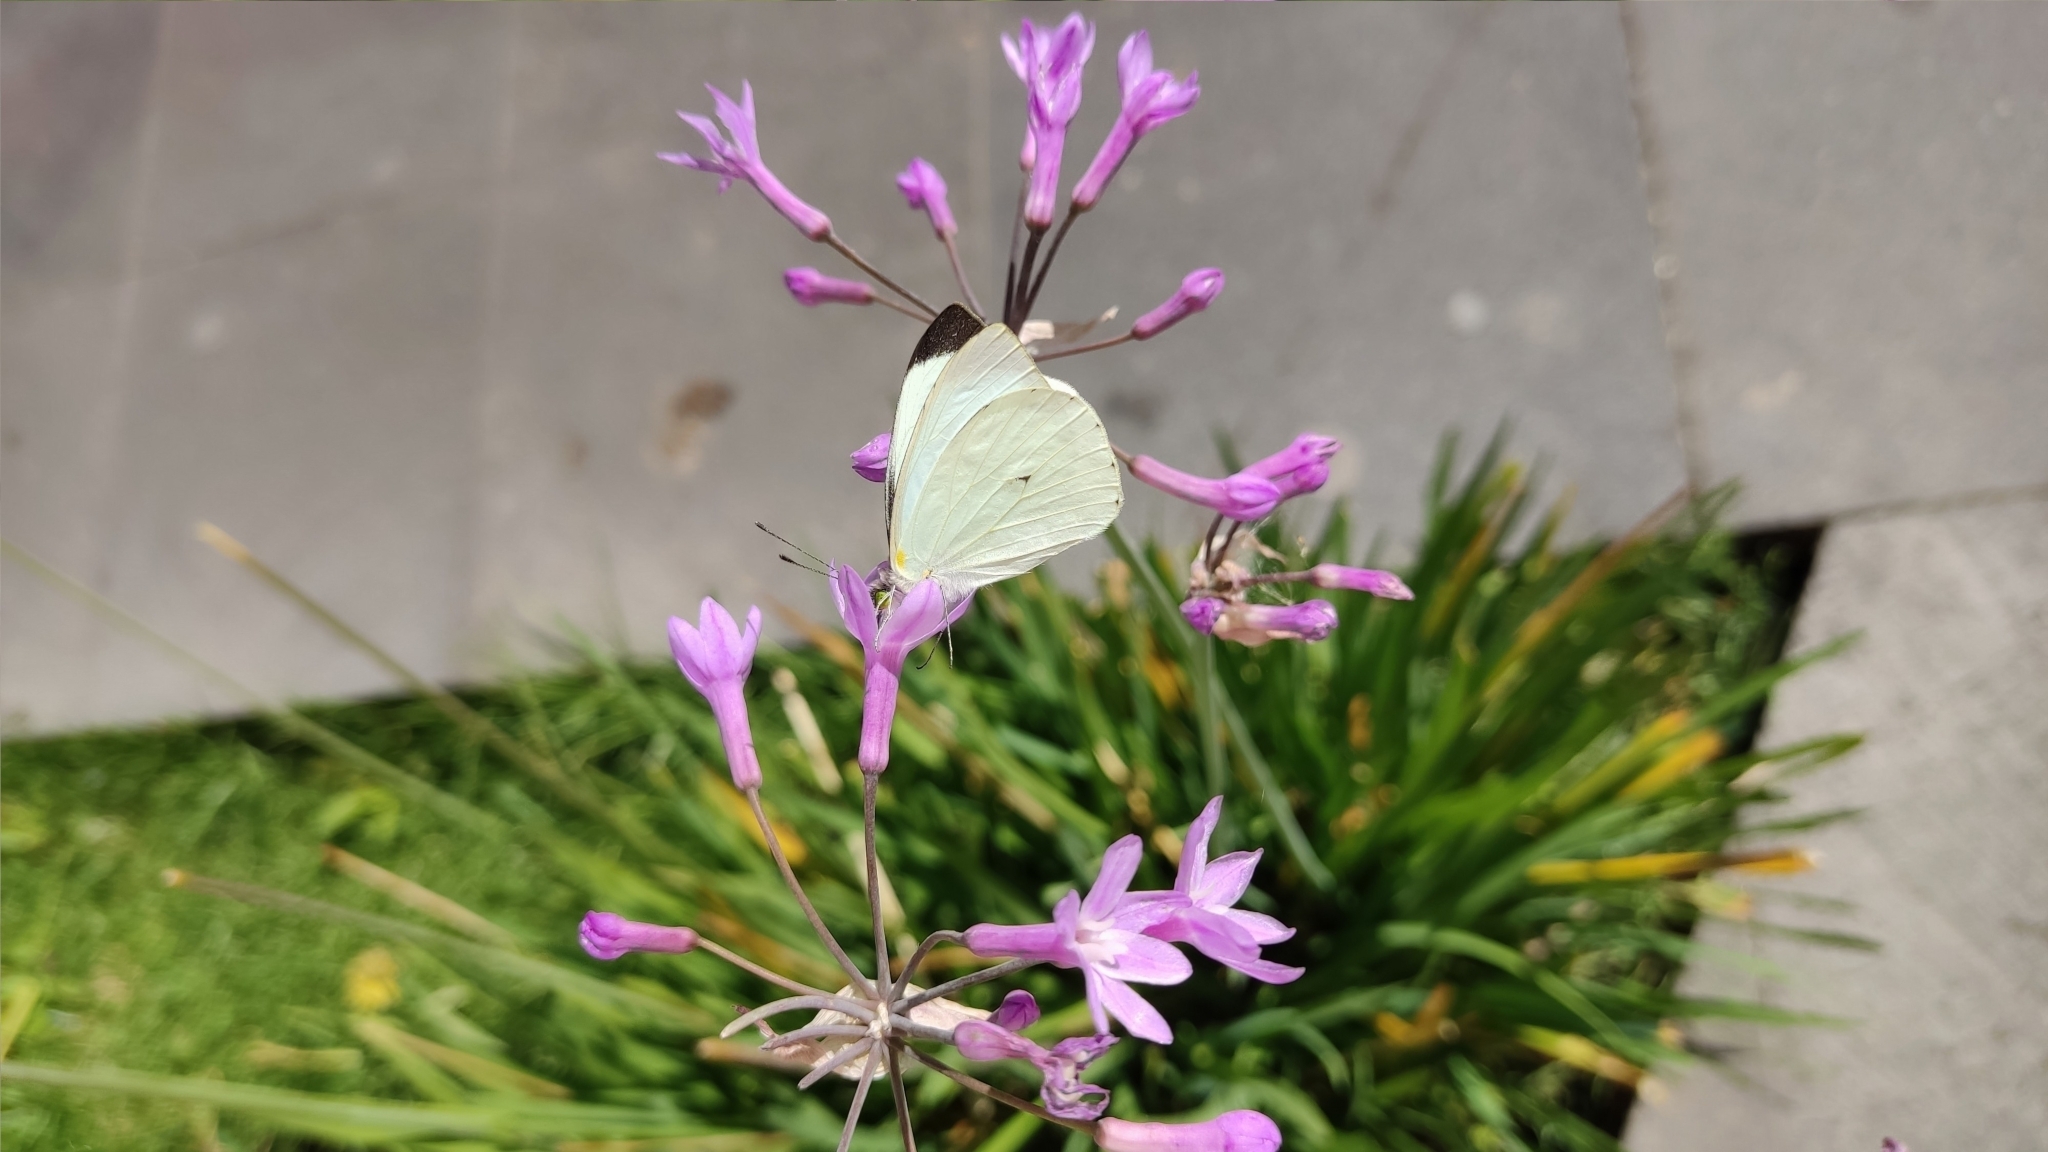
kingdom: Animalia
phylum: Arthropoda
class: Insecta
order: Lepidoptera
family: Pieridae
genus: Leptophobia
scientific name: Leptophobia aripa
